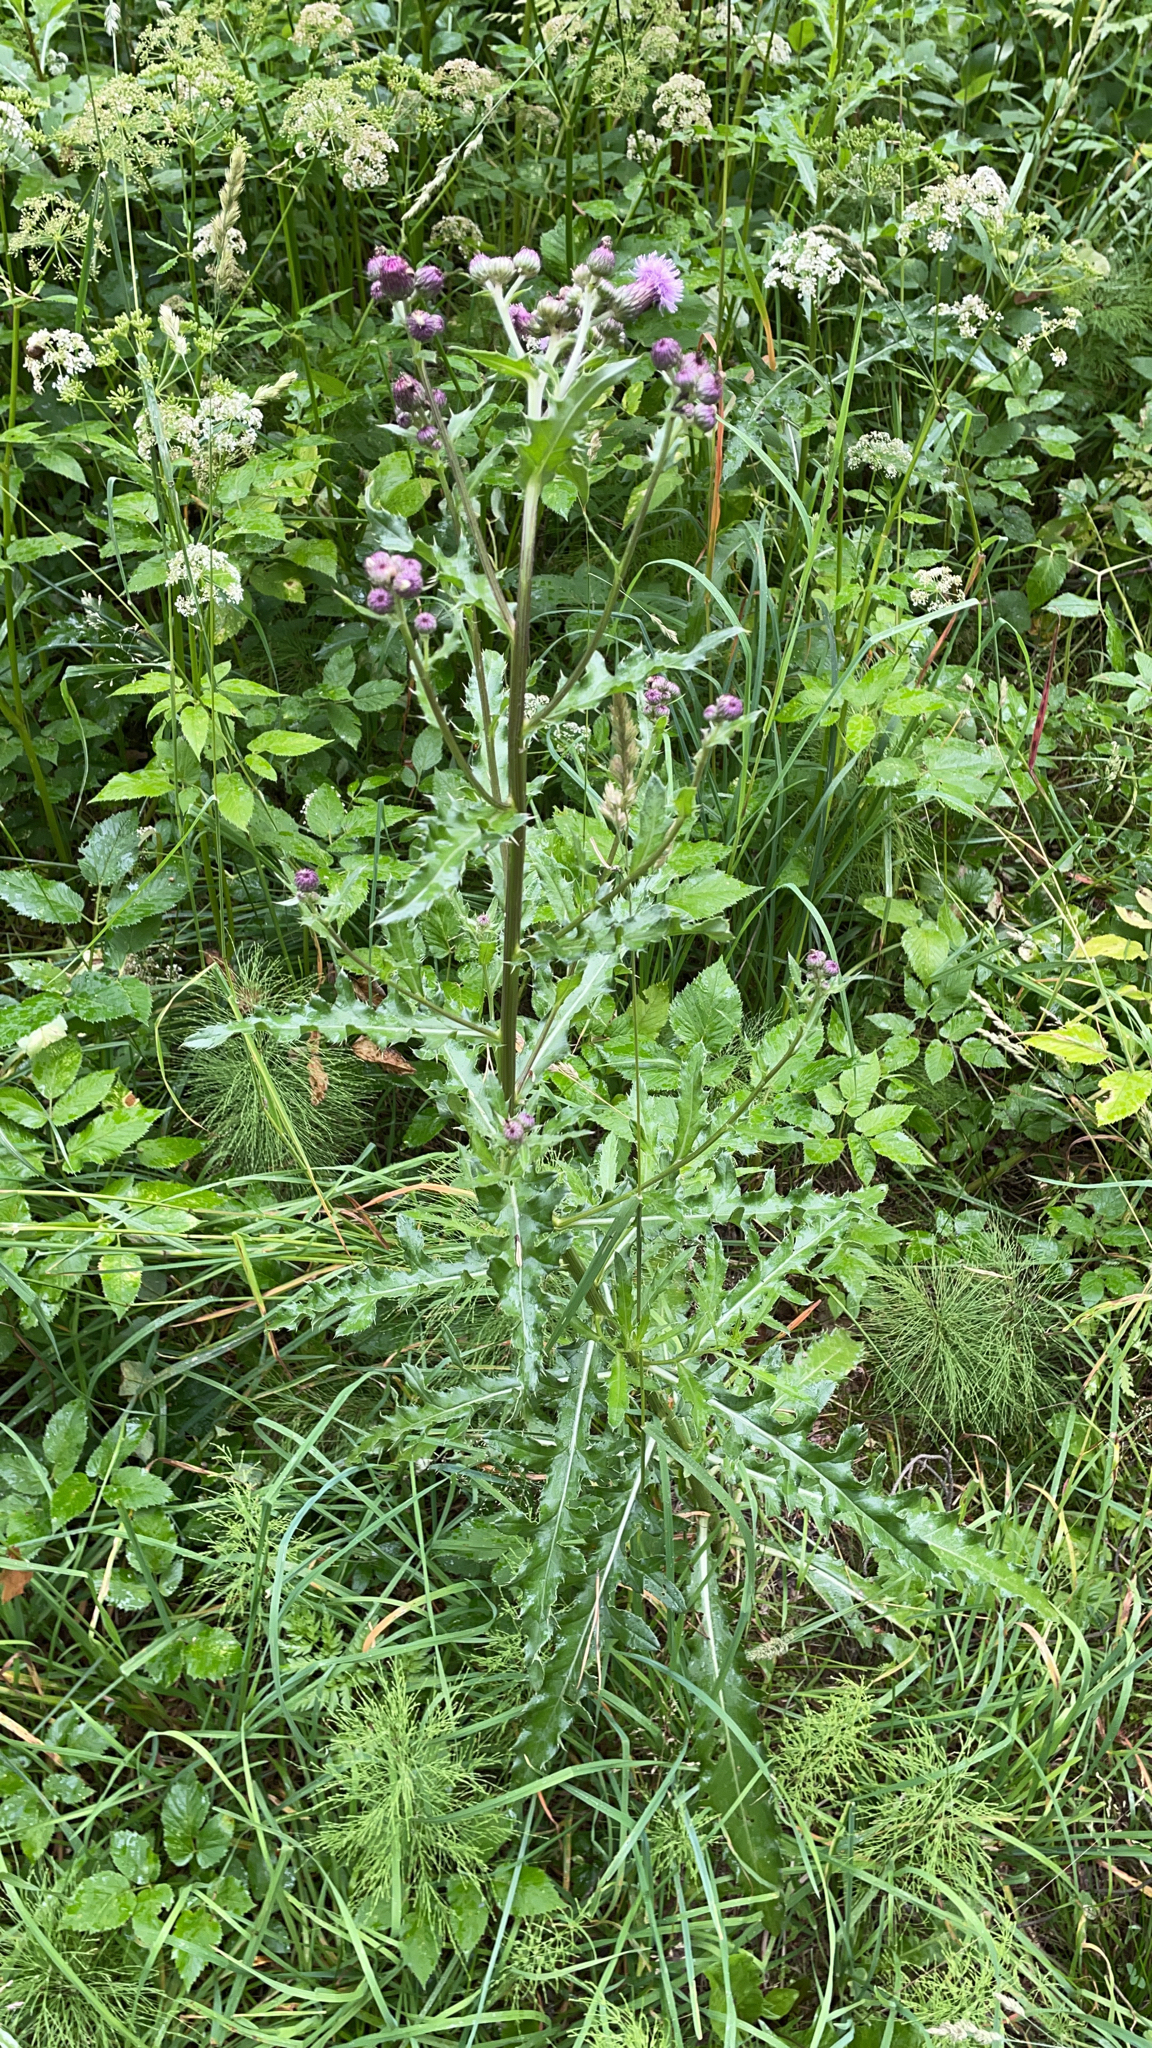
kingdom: Plantae
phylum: Tracheophyta
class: Magnoliopsida
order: Asterales
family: Asteraceae
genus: Cirsium
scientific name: Cirsium arvense
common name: Creeping thistle
